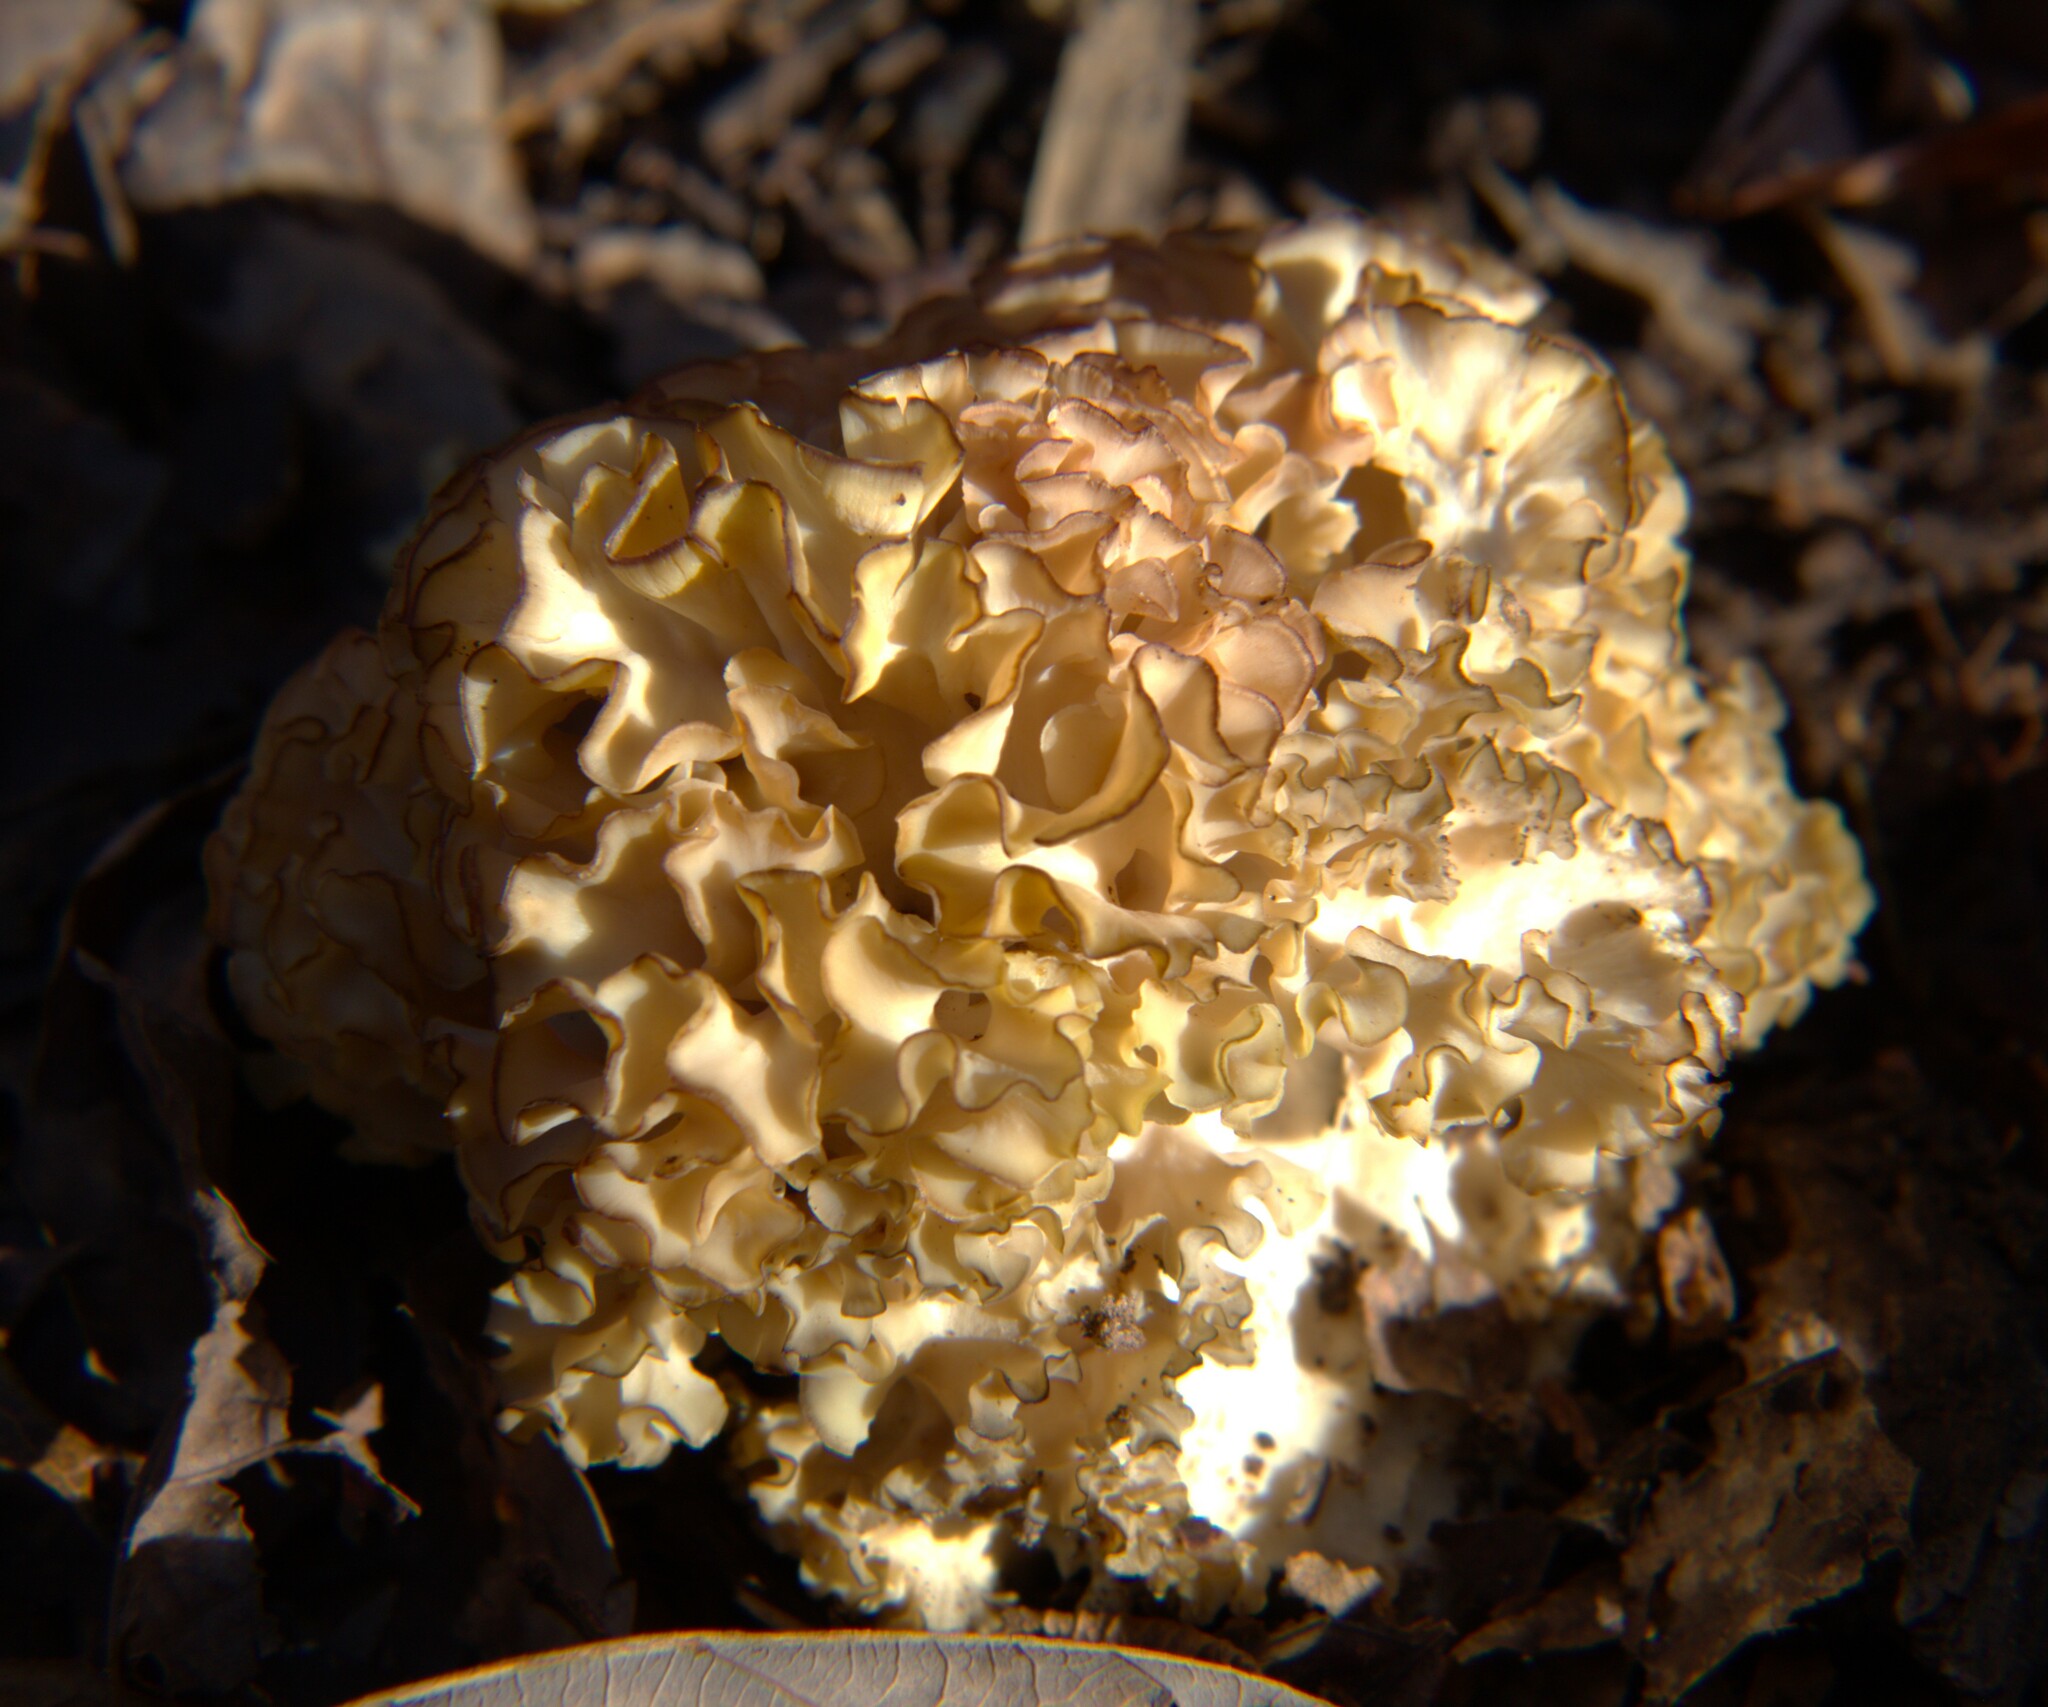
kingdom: Fungi
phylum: Basidiomycota
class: Agaricomycetes
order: Polyporales
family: Sparassidaceae
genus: Sparassis
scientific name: Sparassis spathulata
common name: Eastern cauliflower mushroom
